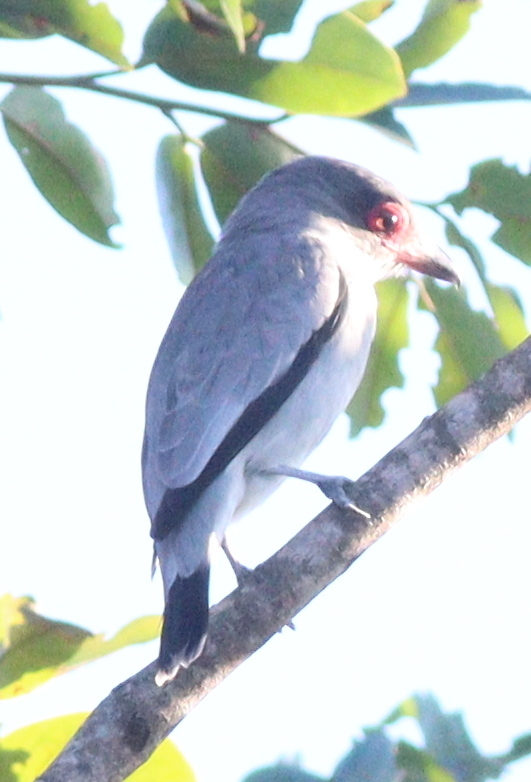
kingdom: Animalia
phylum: Chordata
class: Aves
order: Passeriformes
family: Cotingidae
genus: Tityra
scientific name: Tityra semifasciata
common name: Masked tityra
